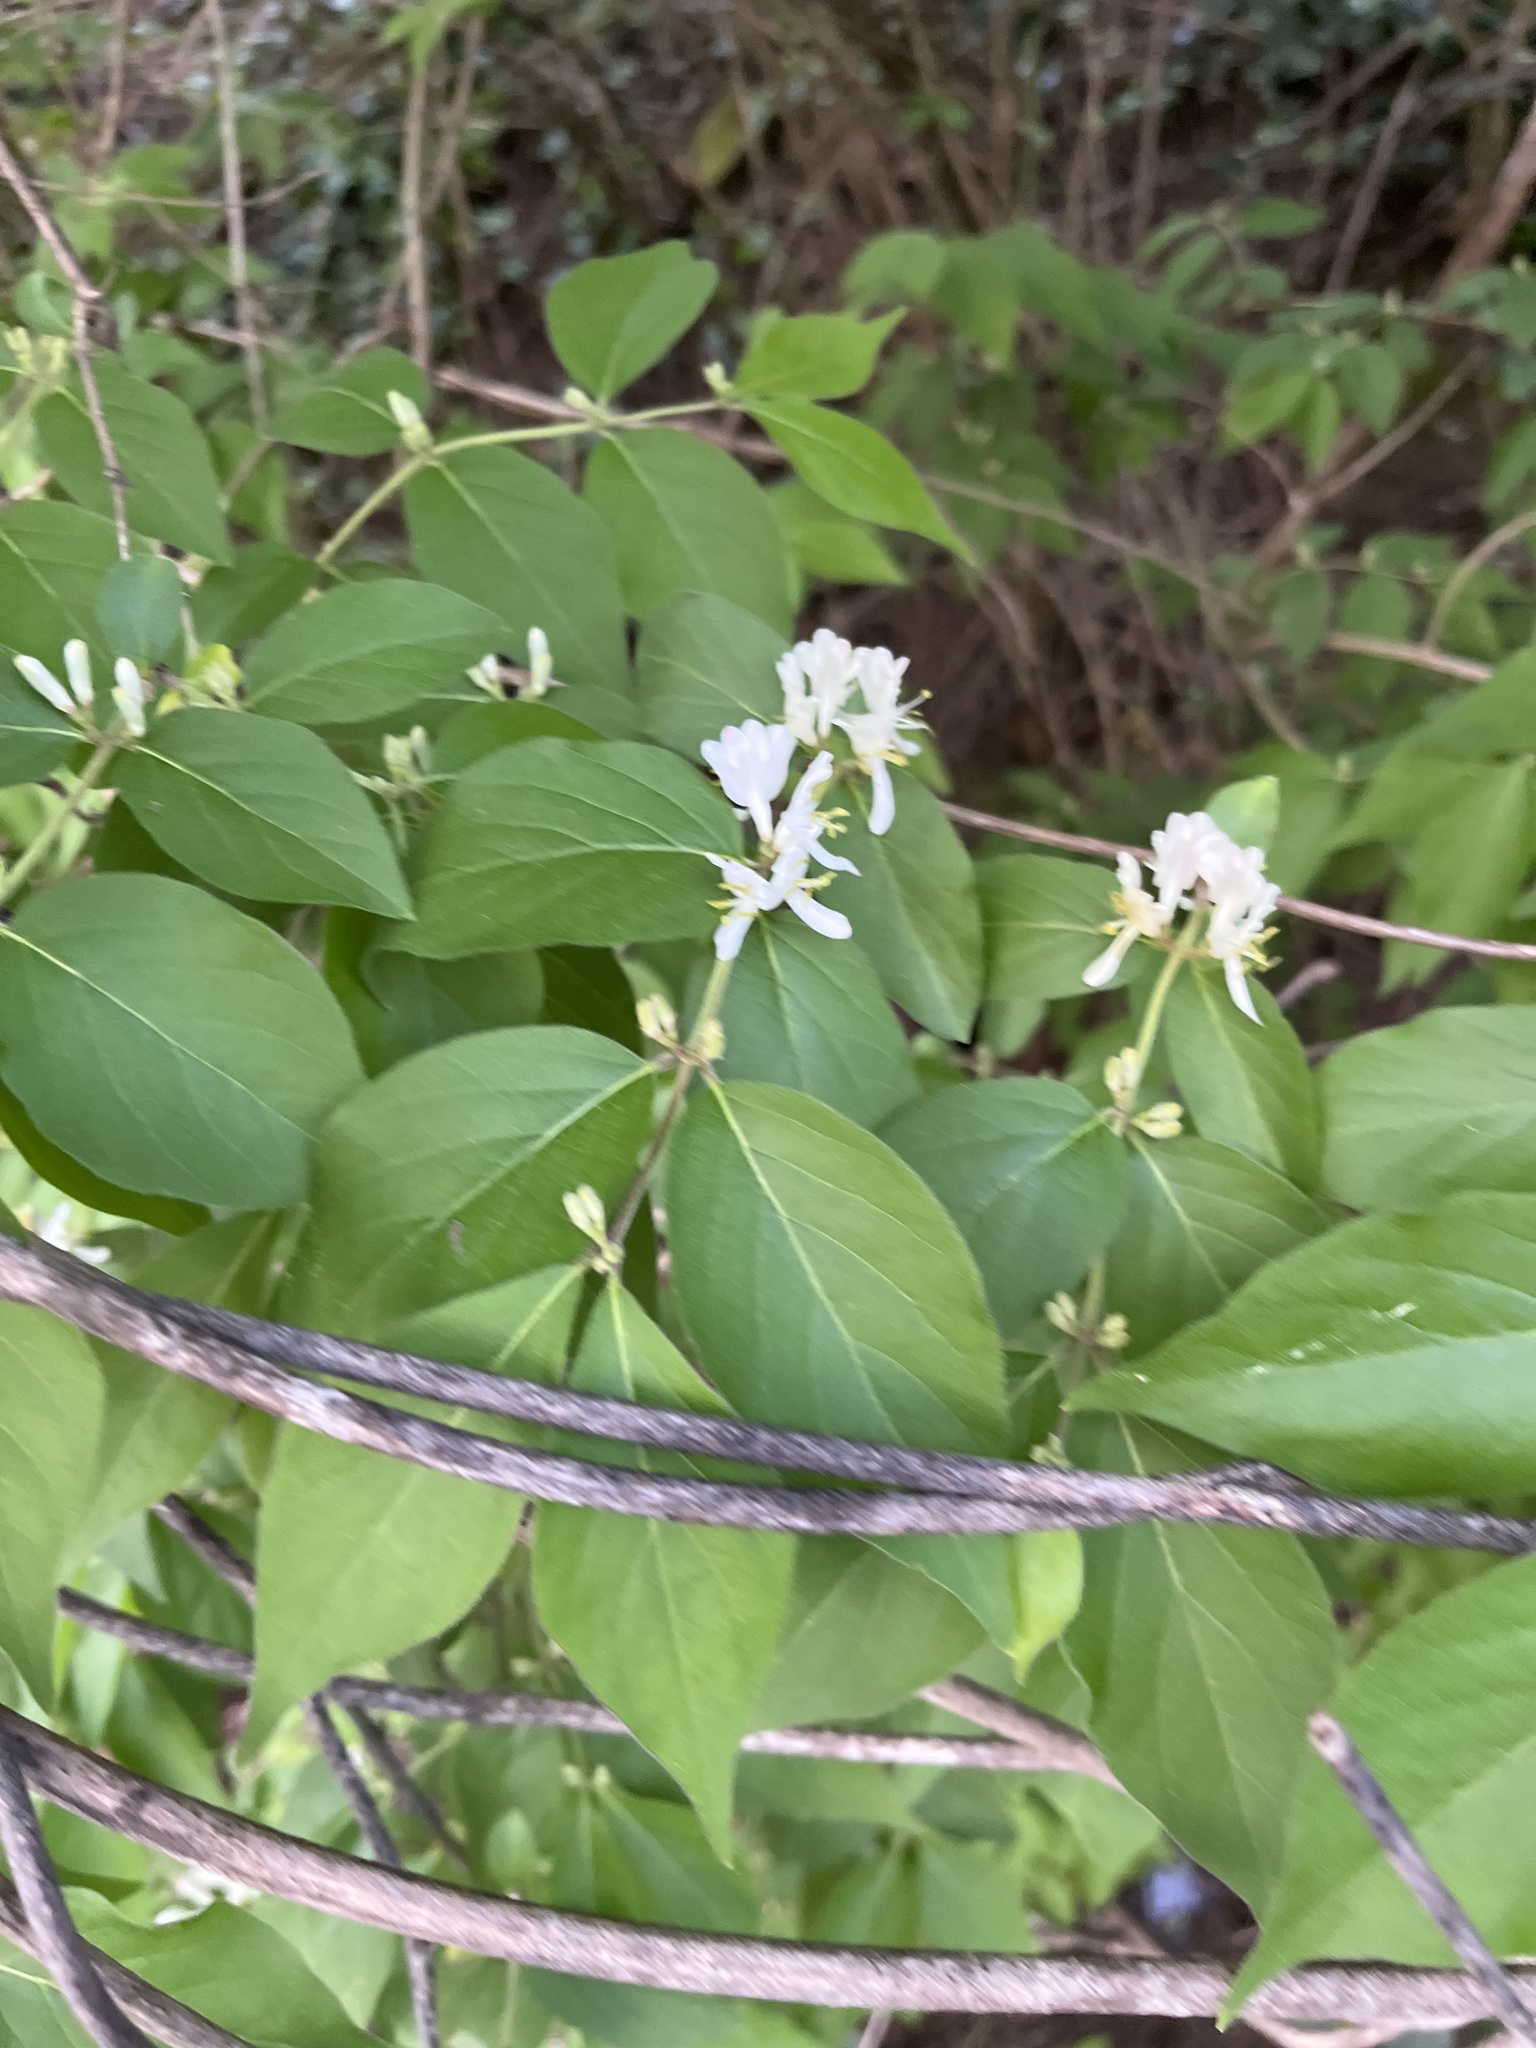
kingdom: Plantae
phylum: Tracheophyta
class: Magnoliopsida
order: Dipsacales
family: Caprifoliaceae
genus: Lonicera
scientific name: Lonicera maackii
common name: Amur honeysuckle
